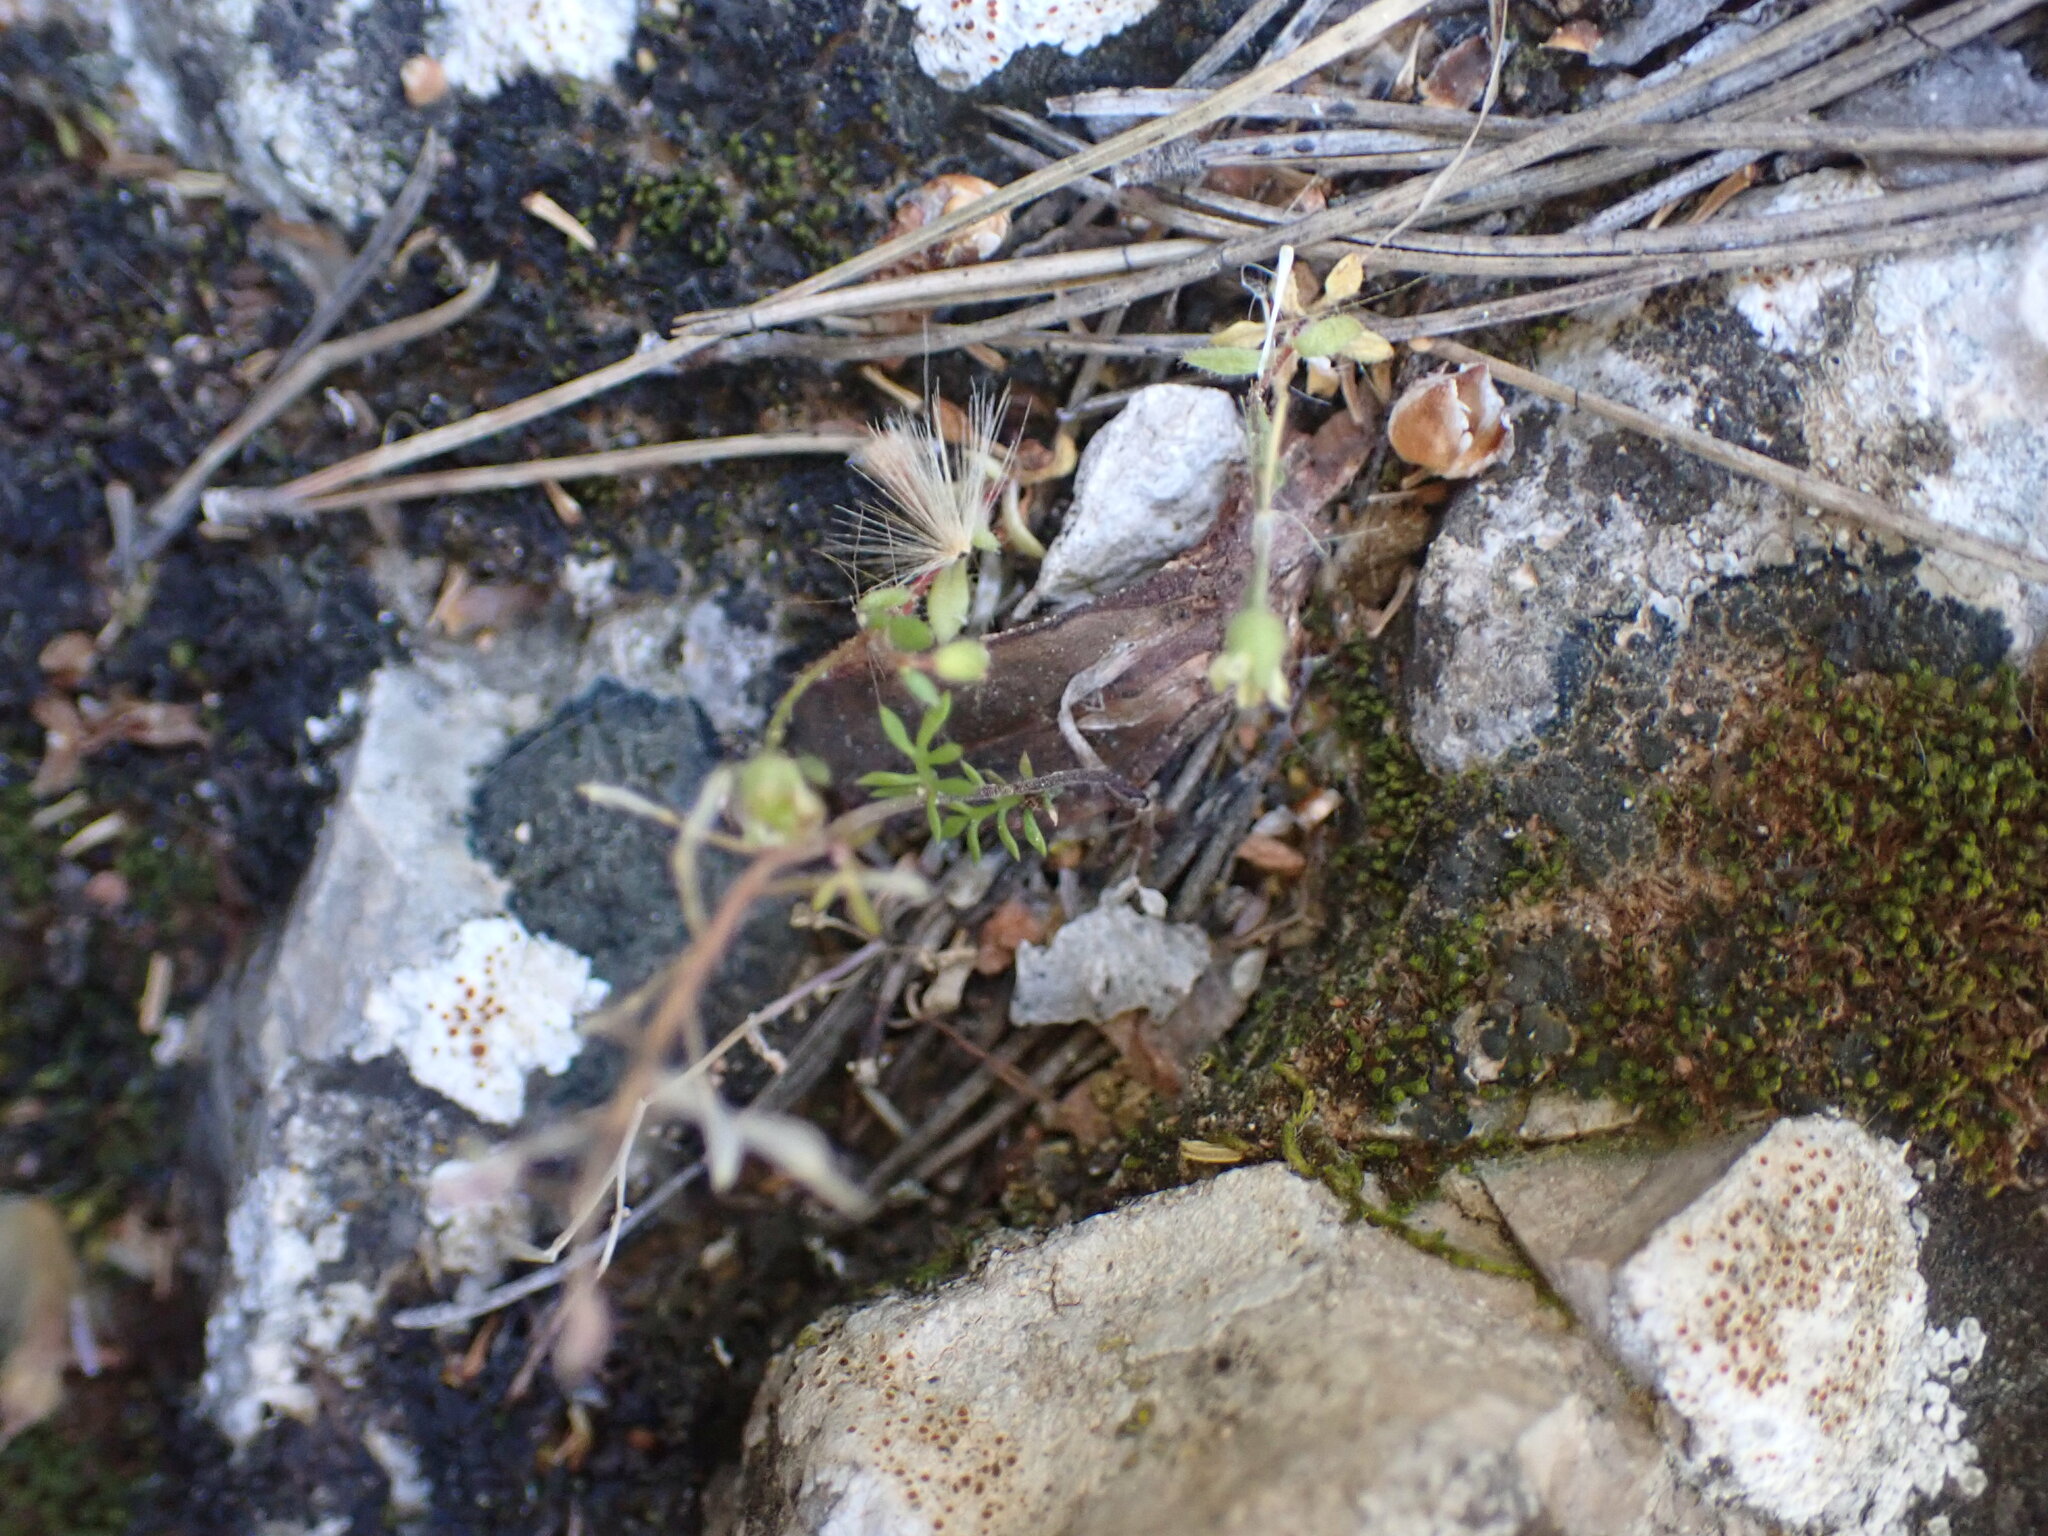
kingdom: Plantae
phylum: Tracheophyta
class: Magnoliopsida
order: Brassicales
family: Brassicaceae
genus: Hornungia
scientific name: Hornungia petraea
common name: Hutchinsia
